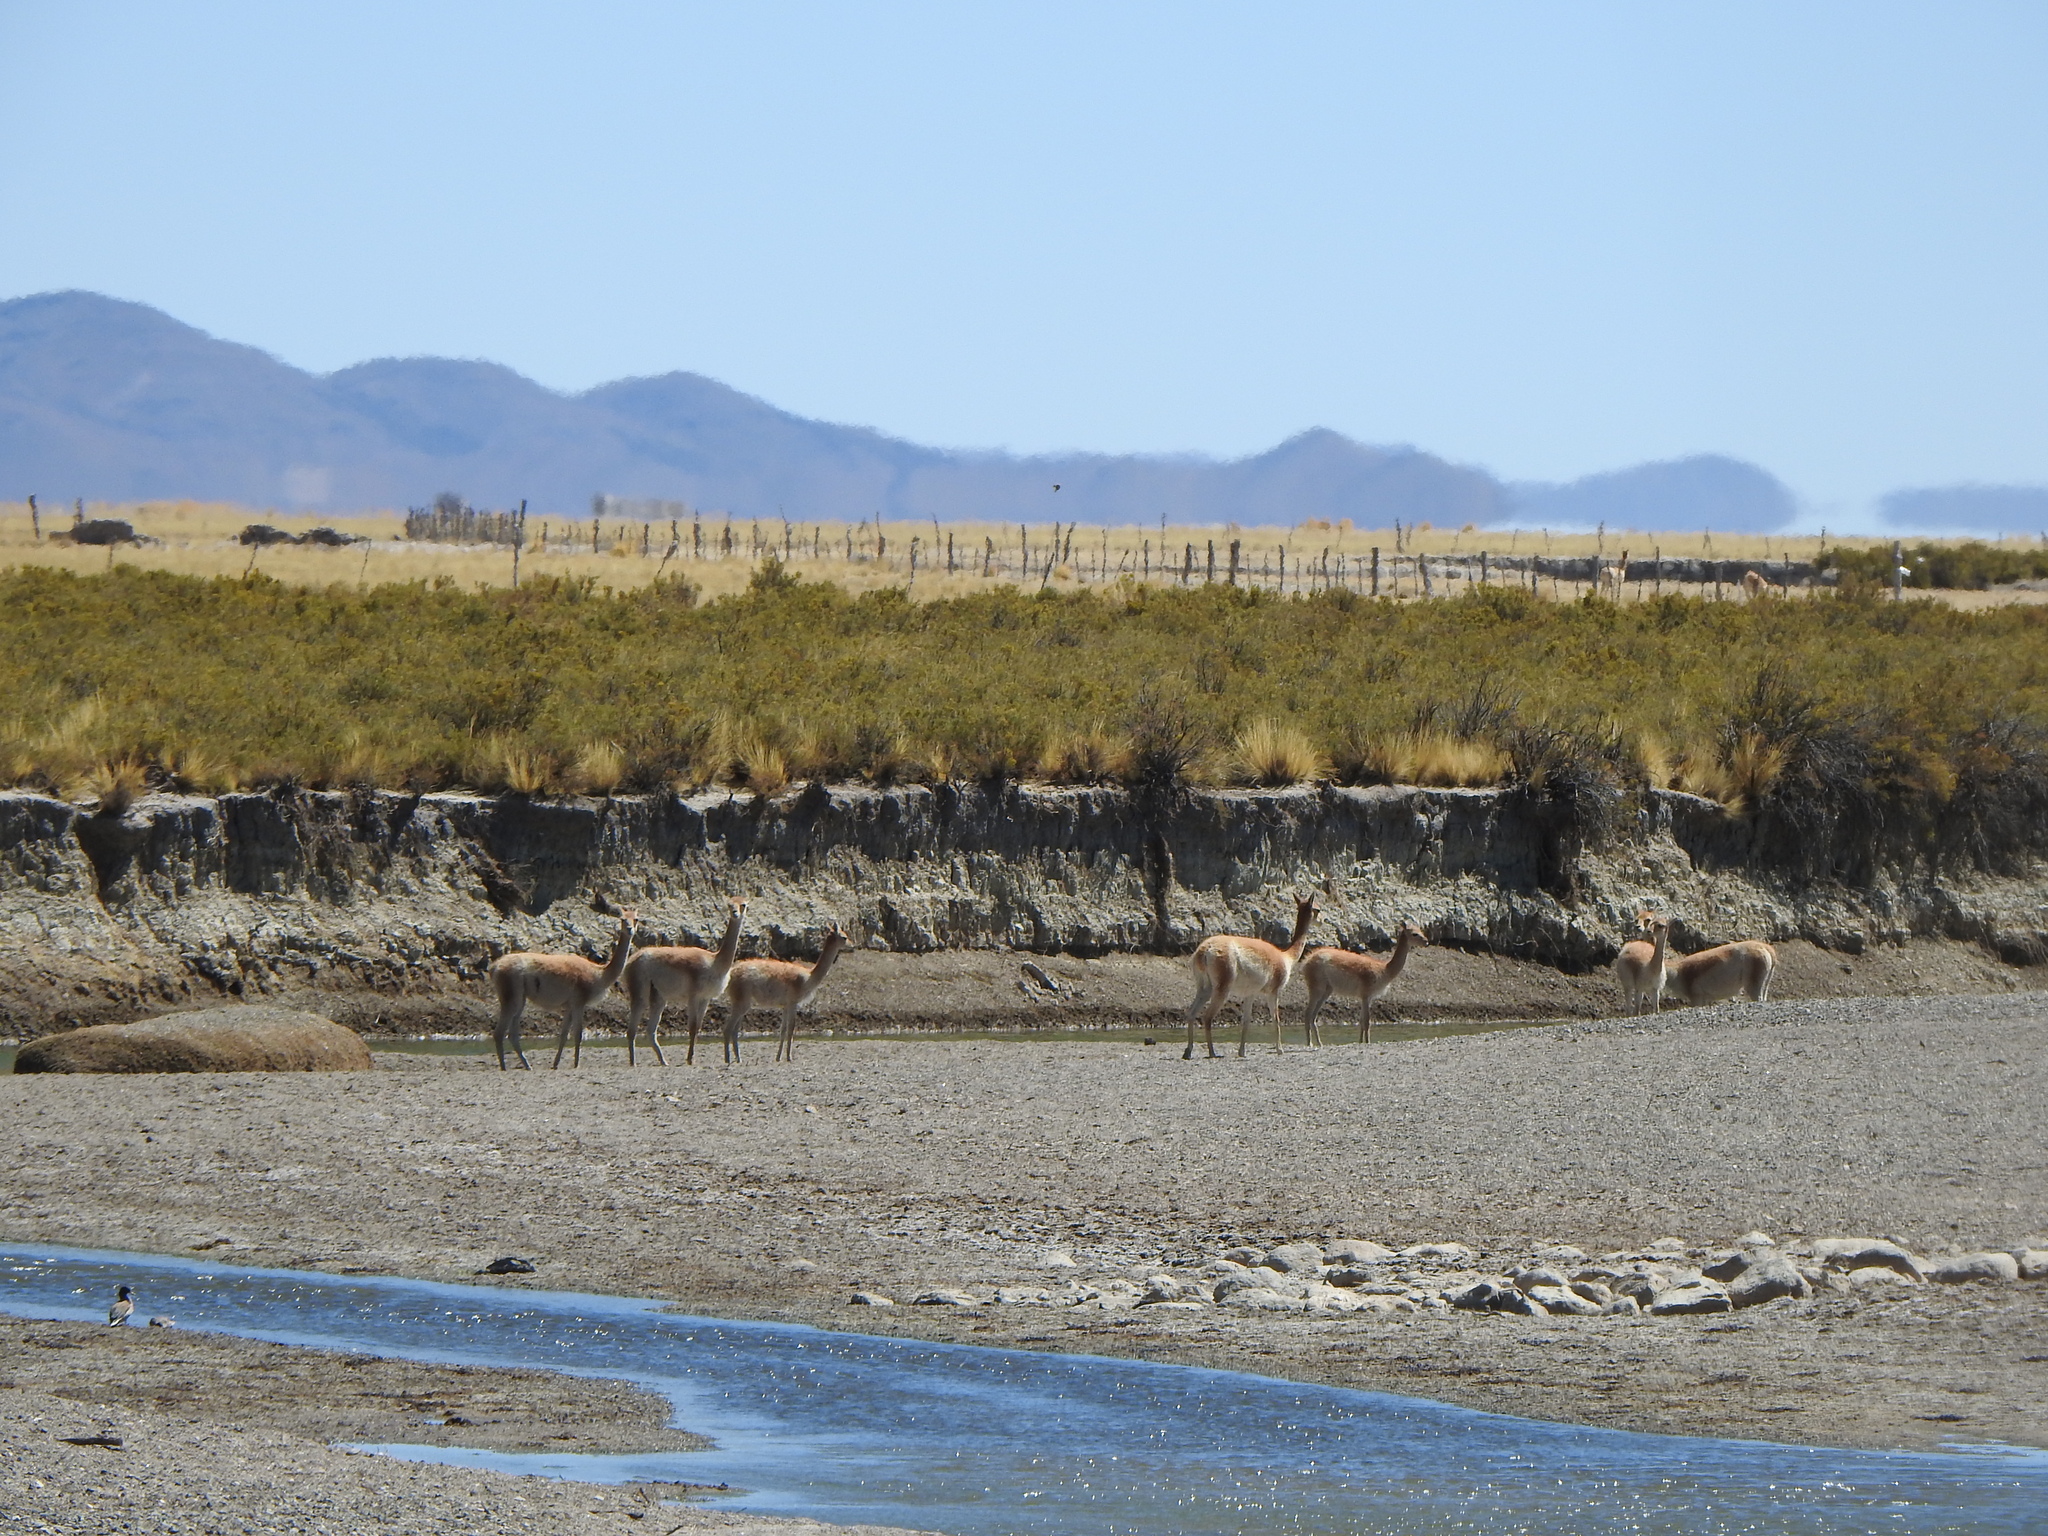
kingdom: Animalia
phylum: Chordata
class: Mammalia
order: Artiodactyla
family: Camelidae
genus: Vicugna
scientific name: Vicugna vicugna
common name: Vicugna
